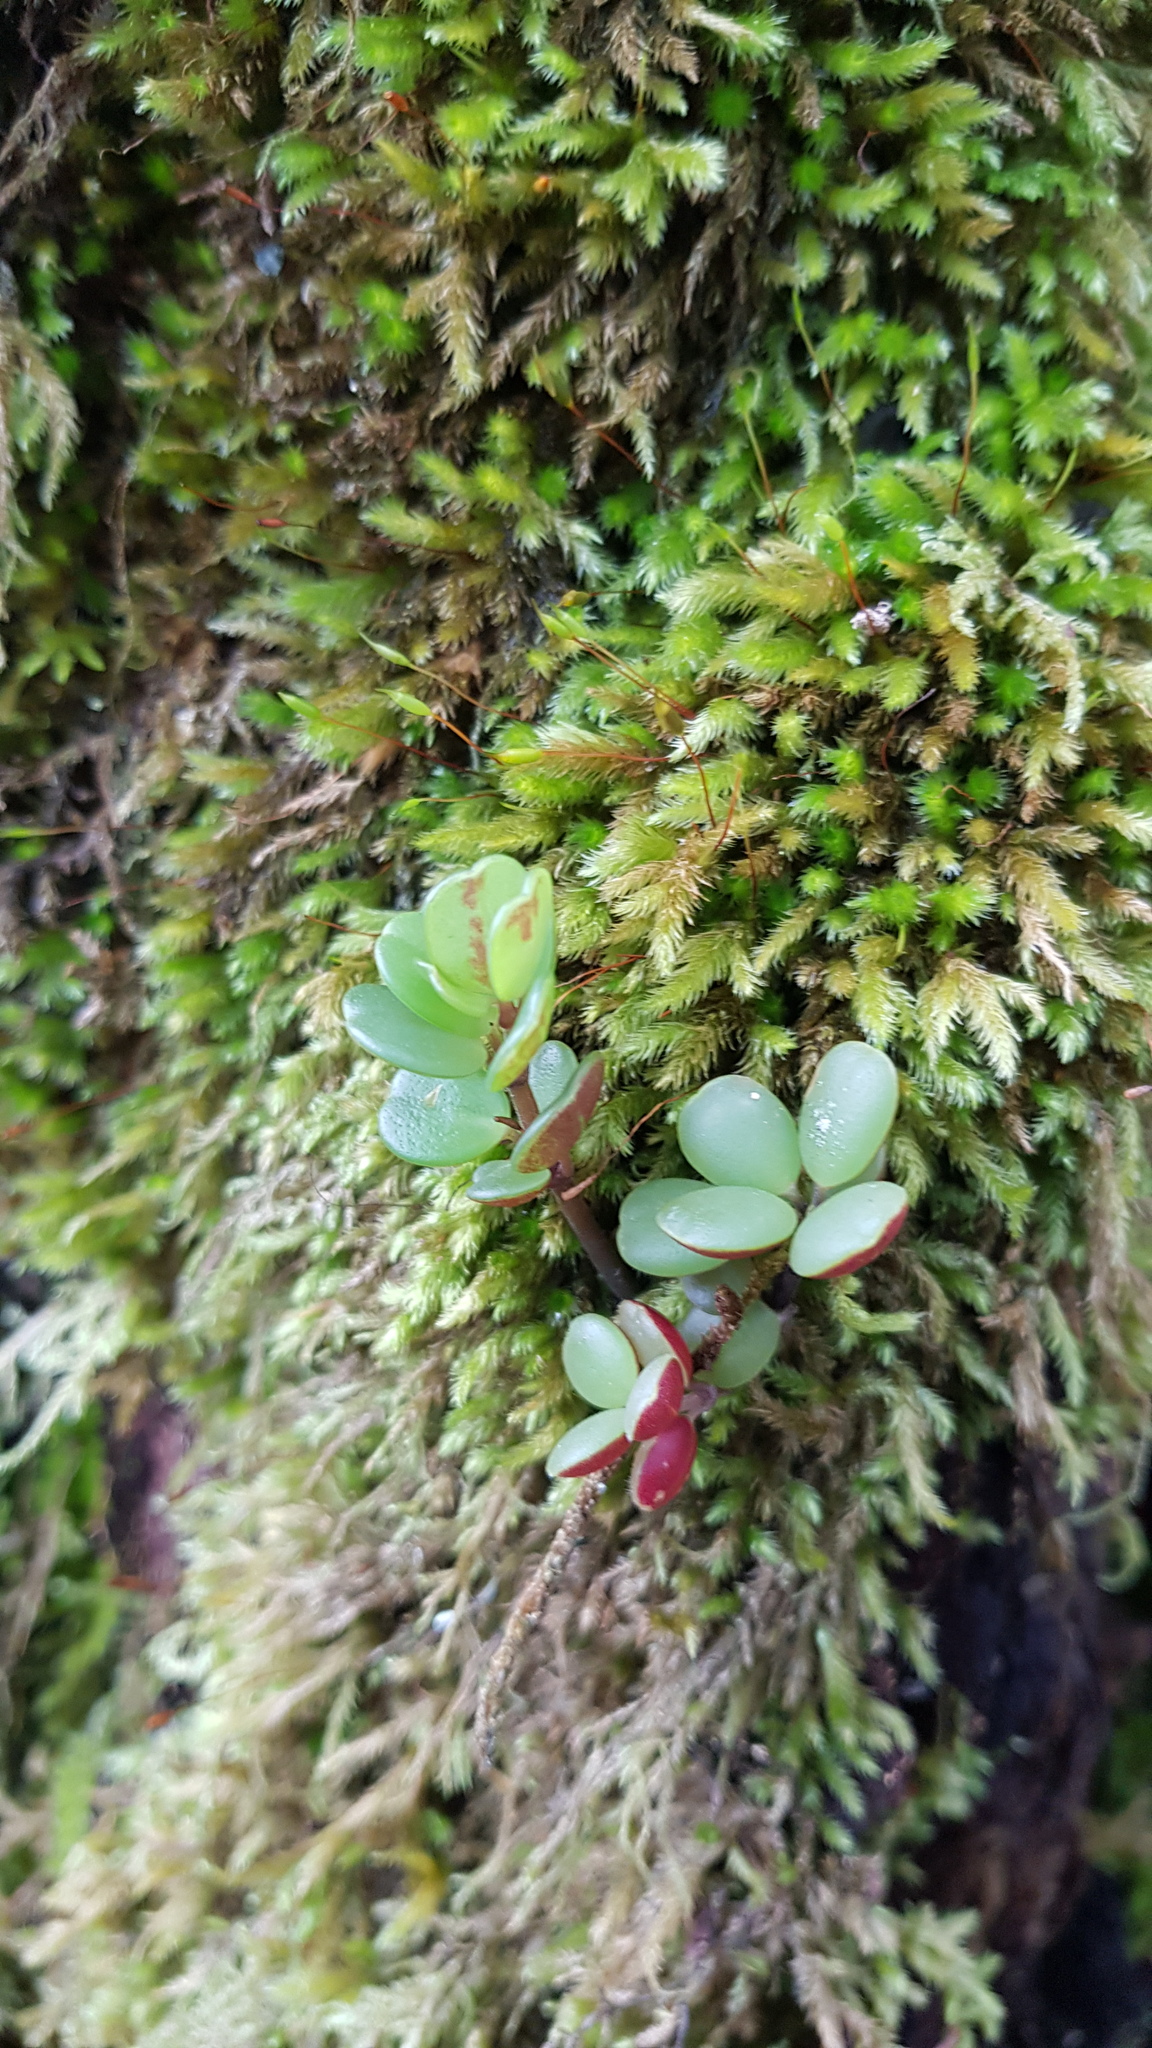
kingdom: Plantae
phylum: Tracheophyta
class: Magnoliopsida
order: Piperales
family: Piperaceae
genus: Peperomia
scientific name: Peperomia edulis
